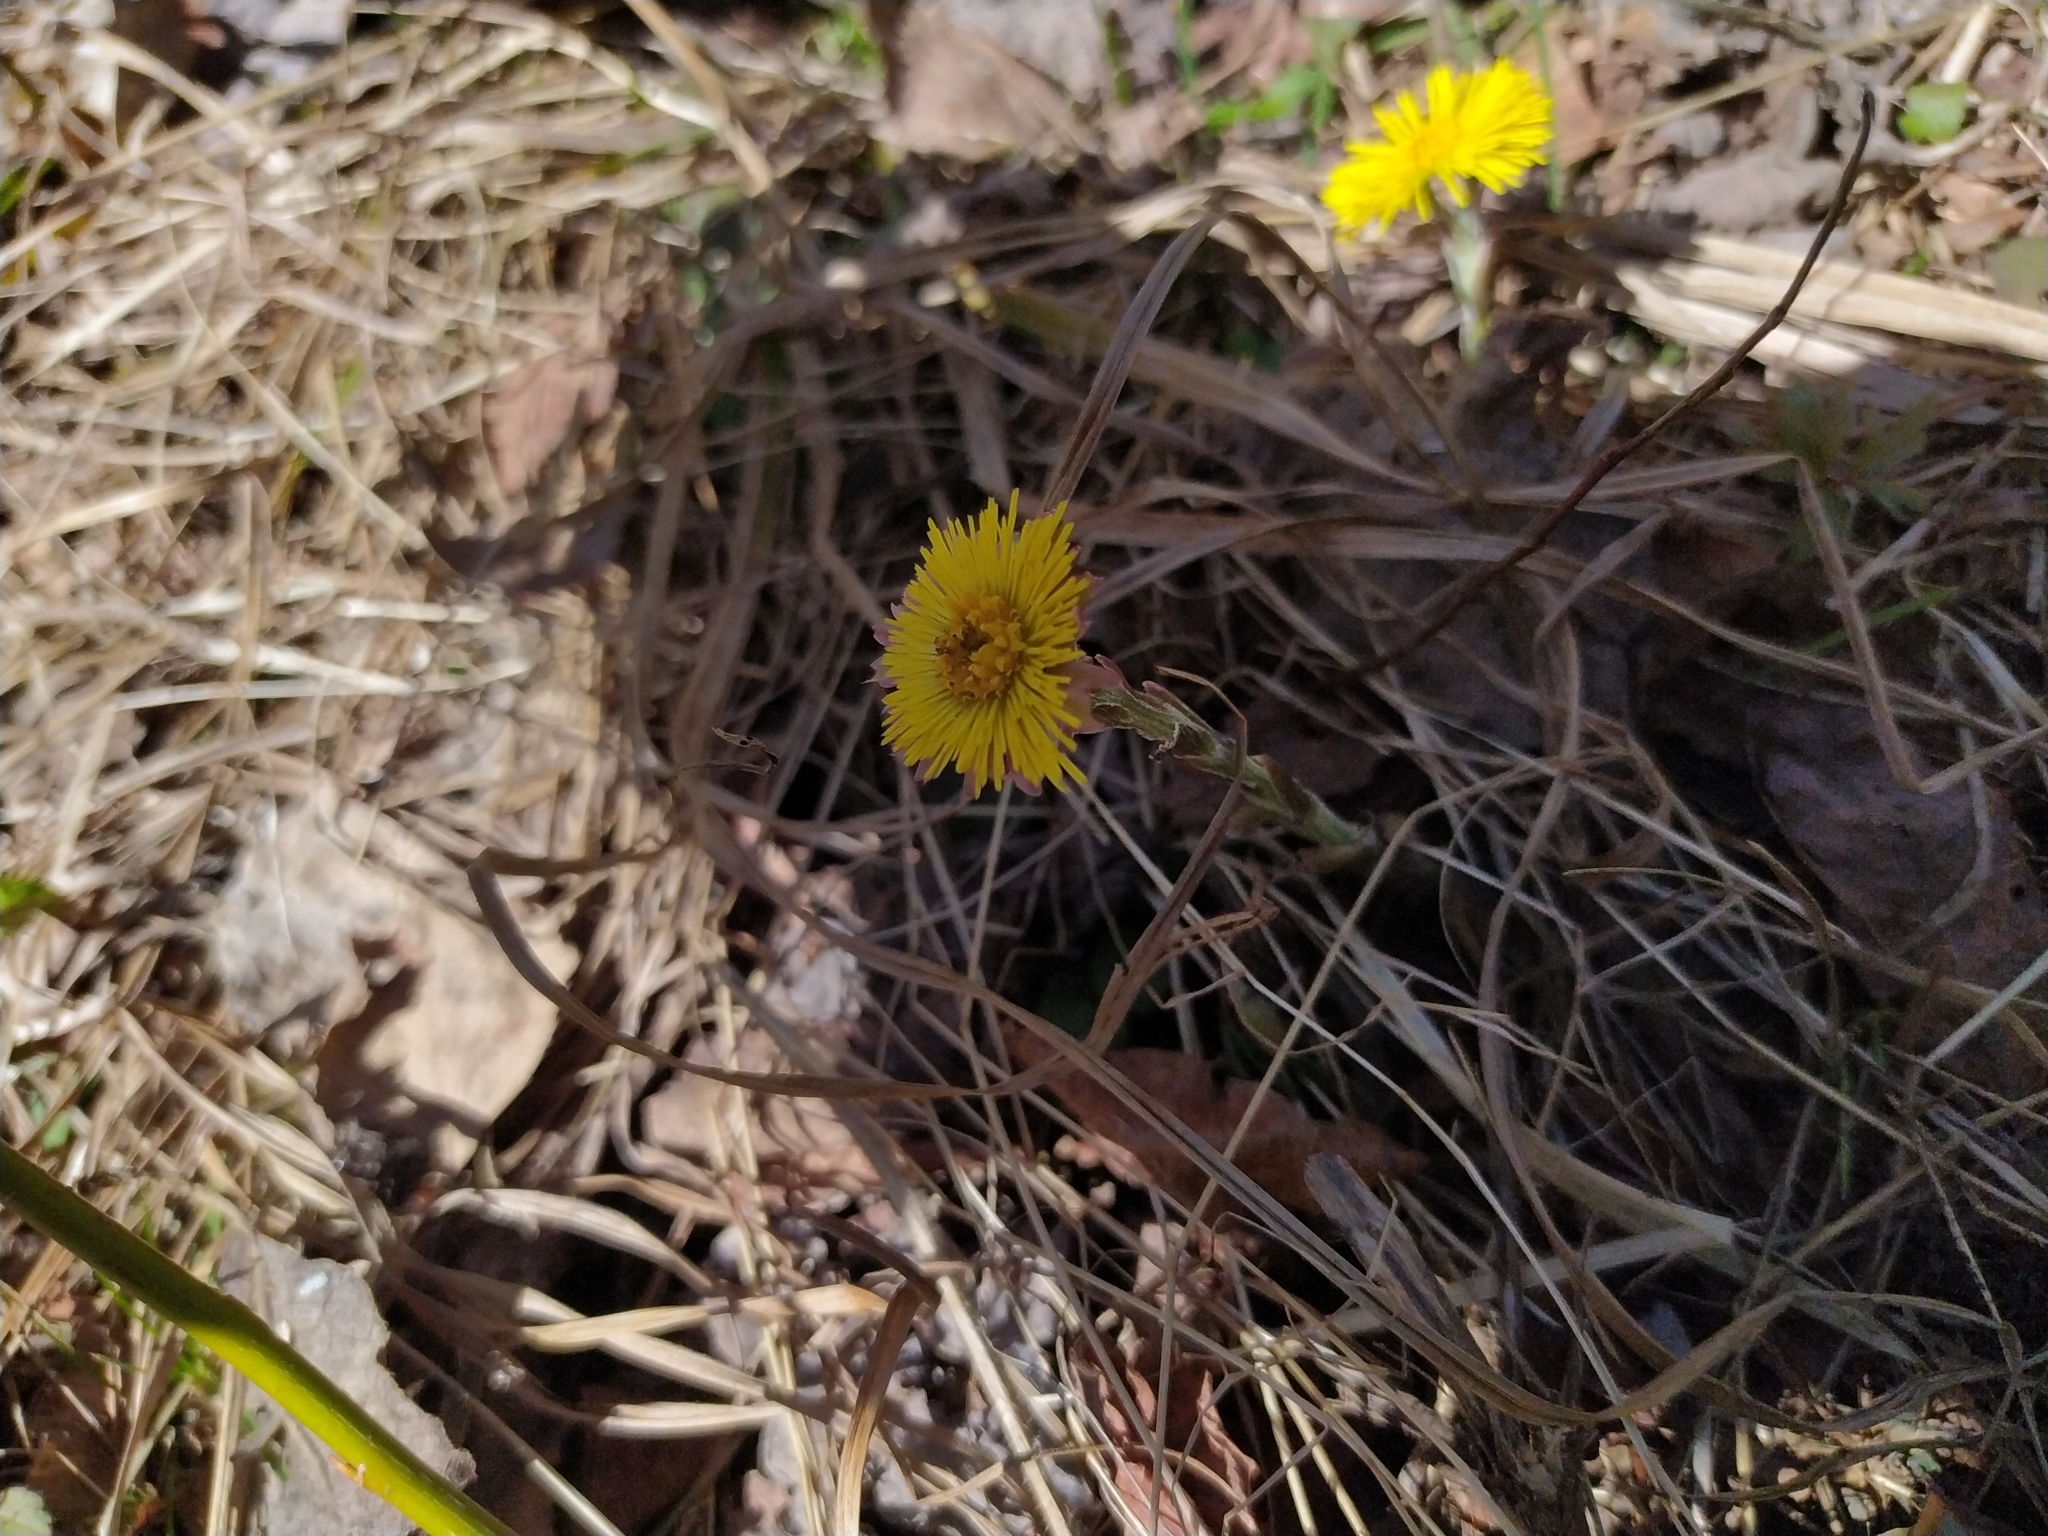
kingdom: Plantae
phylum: Tracheophyta
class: Magnoliopsida
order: Asterales
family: Asteraceae
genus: Tussilago
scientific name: Tussilago farfara
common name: Coltsfoot
